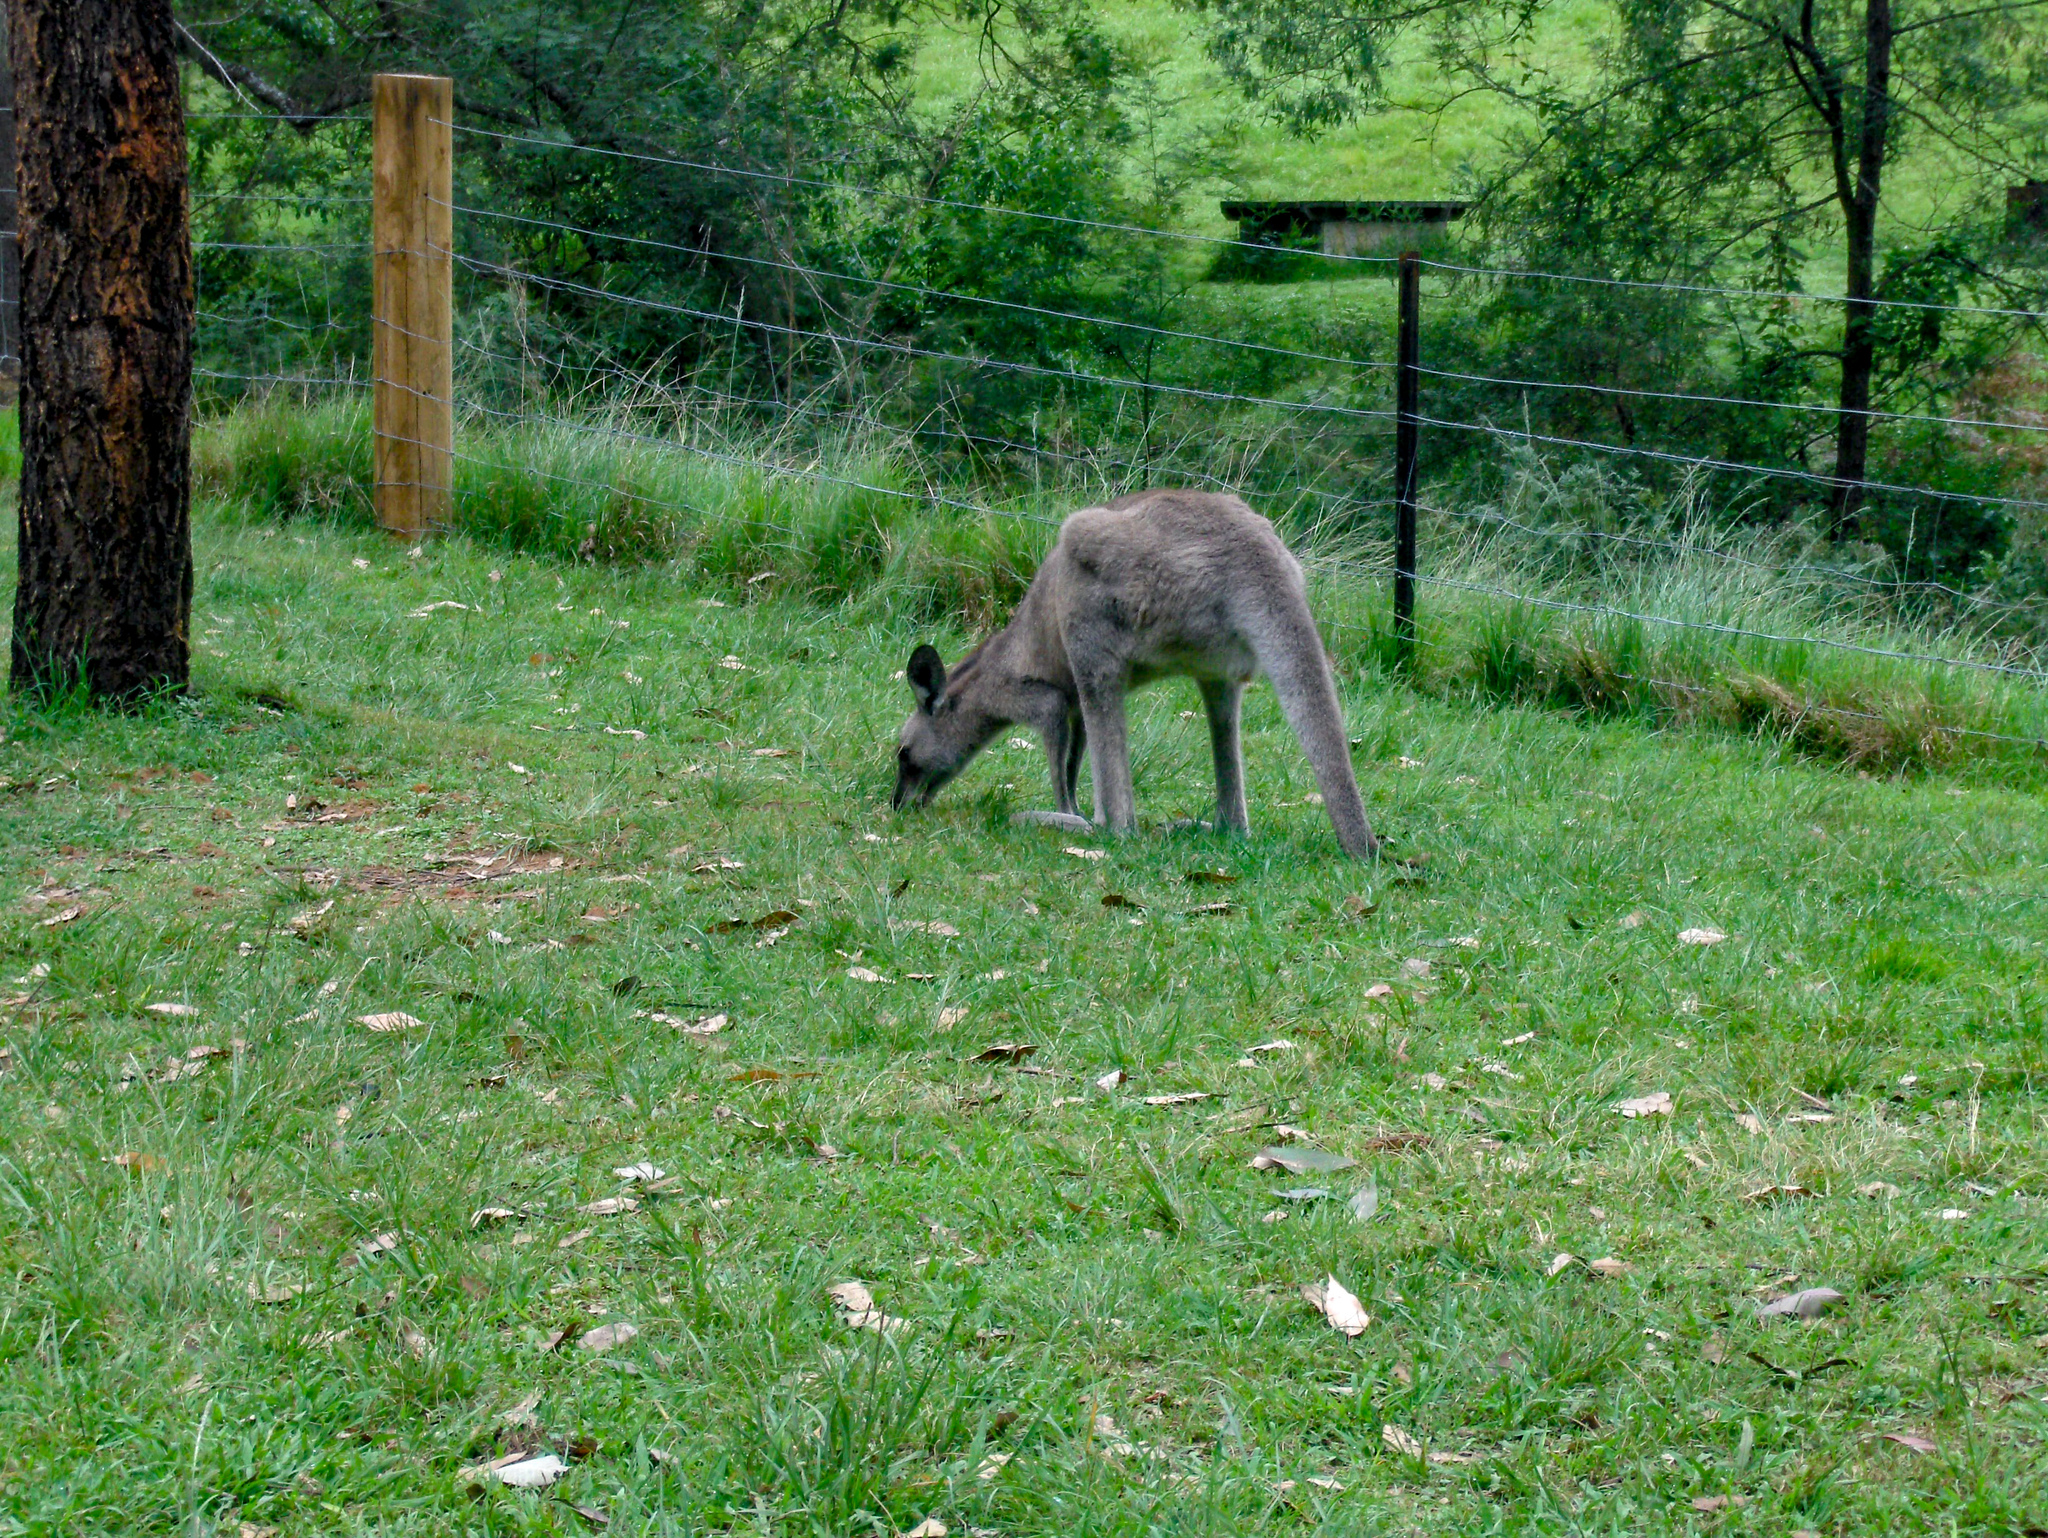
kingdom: Animalia
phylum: Chordata
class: Mammalia
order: Diprotodontia
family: Macropodidae
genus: Macropus
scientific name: Macropus giganteus
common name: Eastern grey kangaroo
